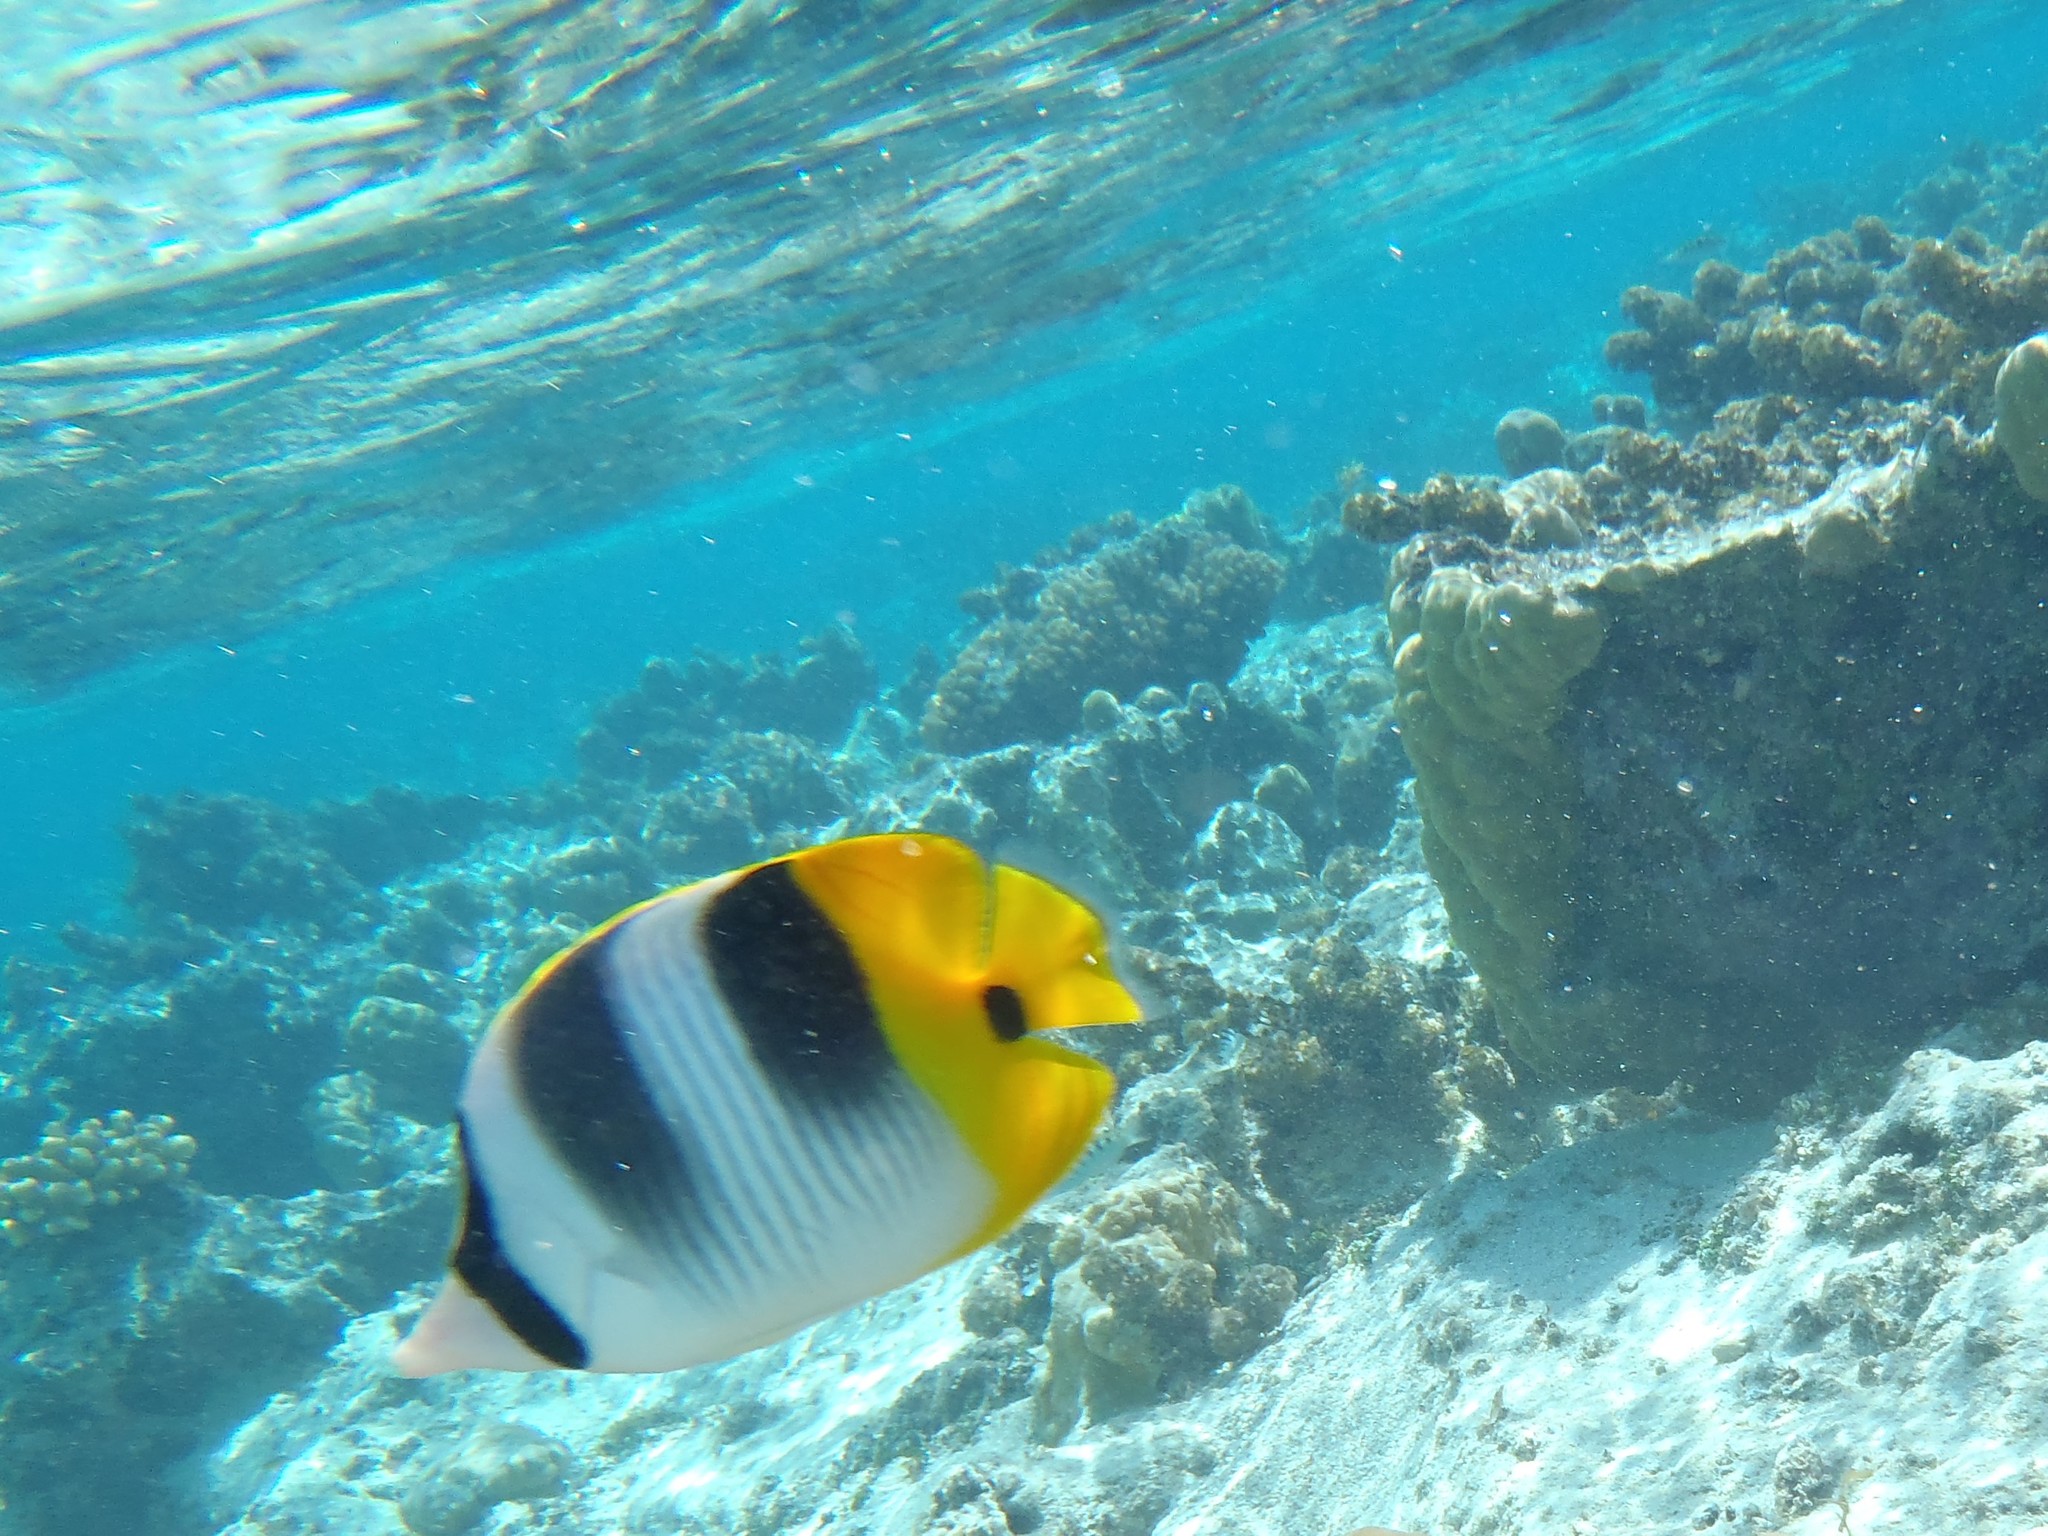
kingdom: Animalia
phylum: Chordata
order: Perciformes
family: Chaetodontidae
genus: Chaetodon
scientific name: Chaetodon ulietensis
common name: Pacific double-saddle butterflyfish
